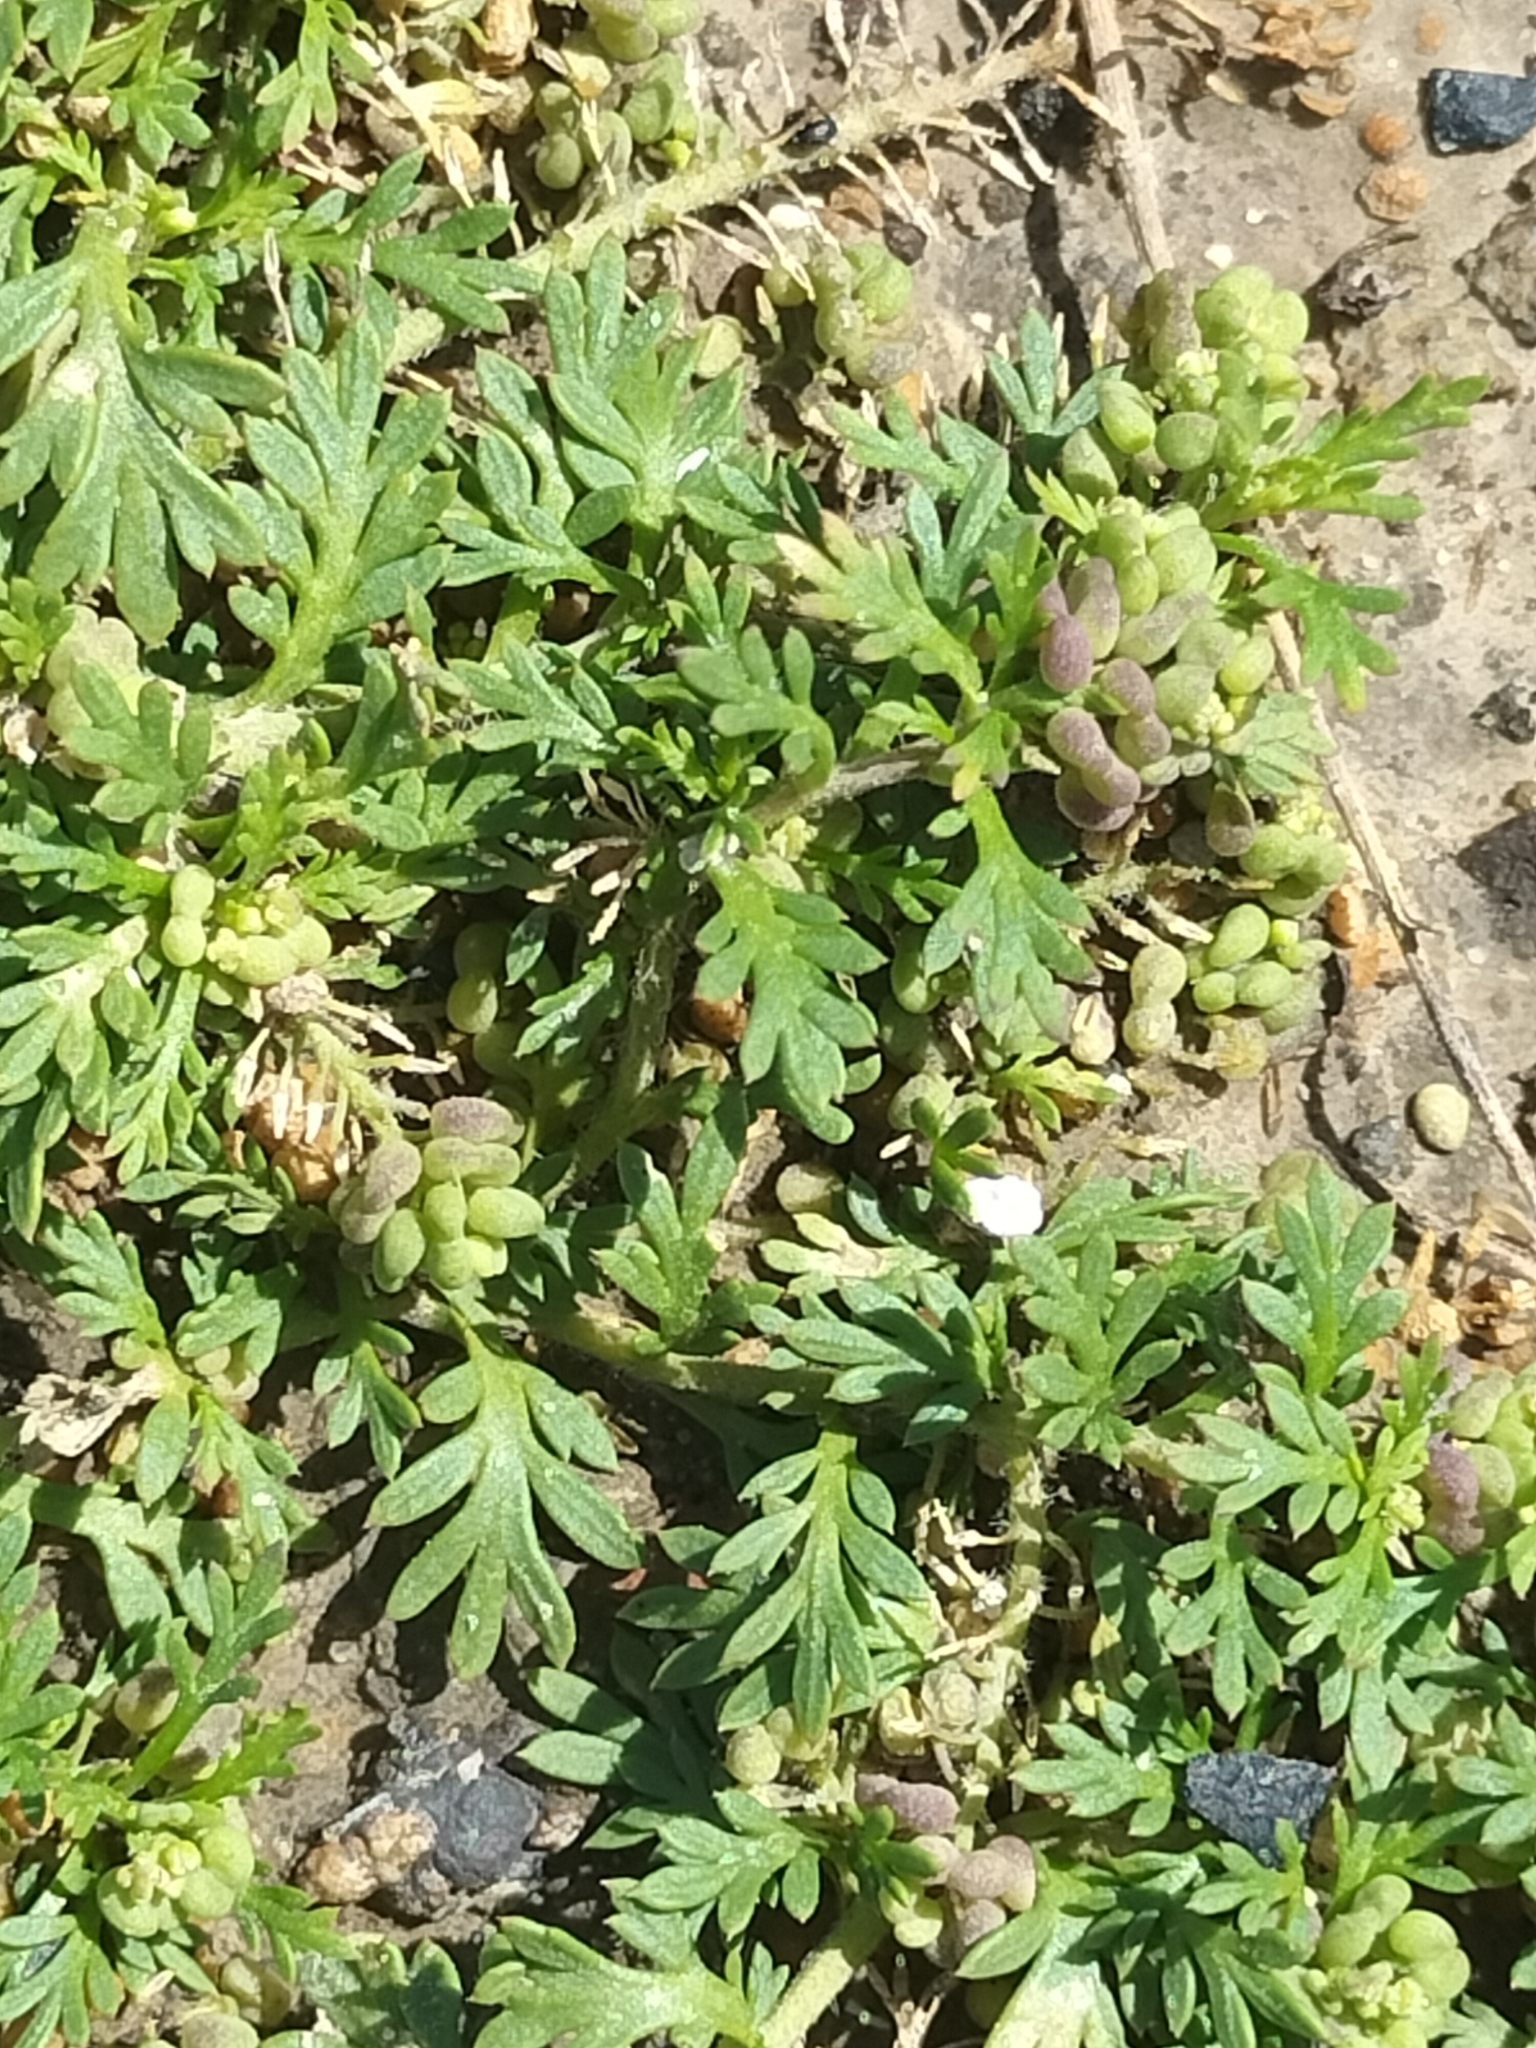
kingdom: Plantae
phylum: Tracheophyta
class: Magnoliopsida
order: Brassicales
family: Brassicaceae
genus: Lepidium
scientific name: Lepidium didymum
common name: Lesser swinecress
